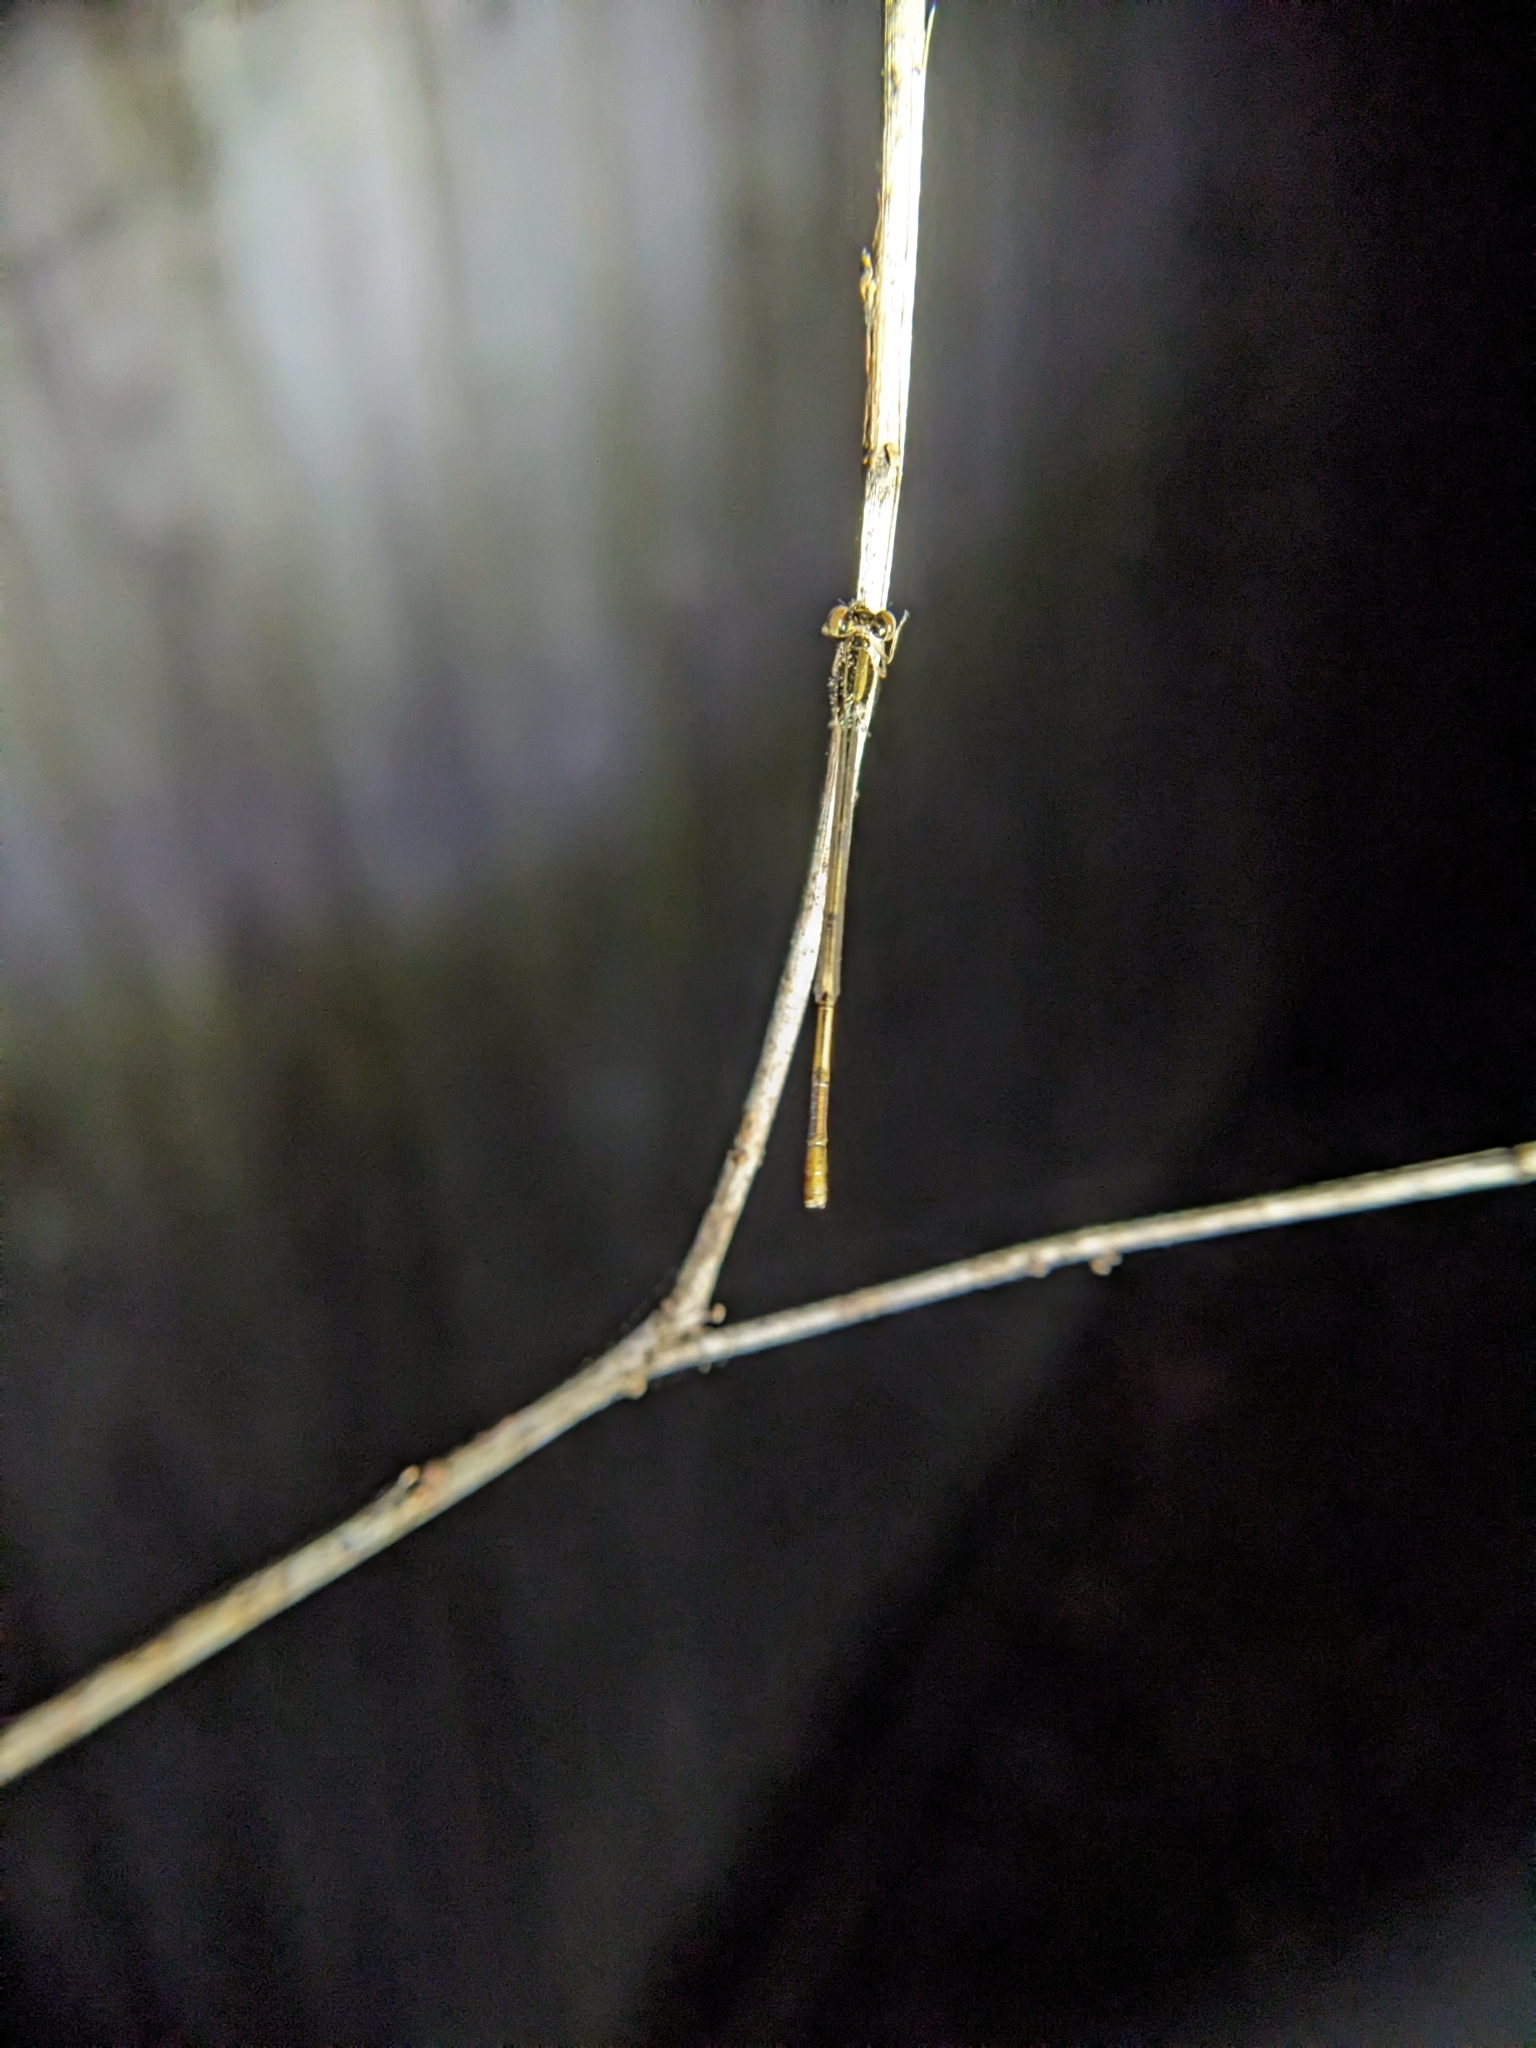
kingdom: Animalia
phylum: Arthropoda
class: Insecta
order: Odonata
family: Coenagrionidae
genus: Ischnura
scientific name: Ischnura hastata
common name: Citrine forktail
